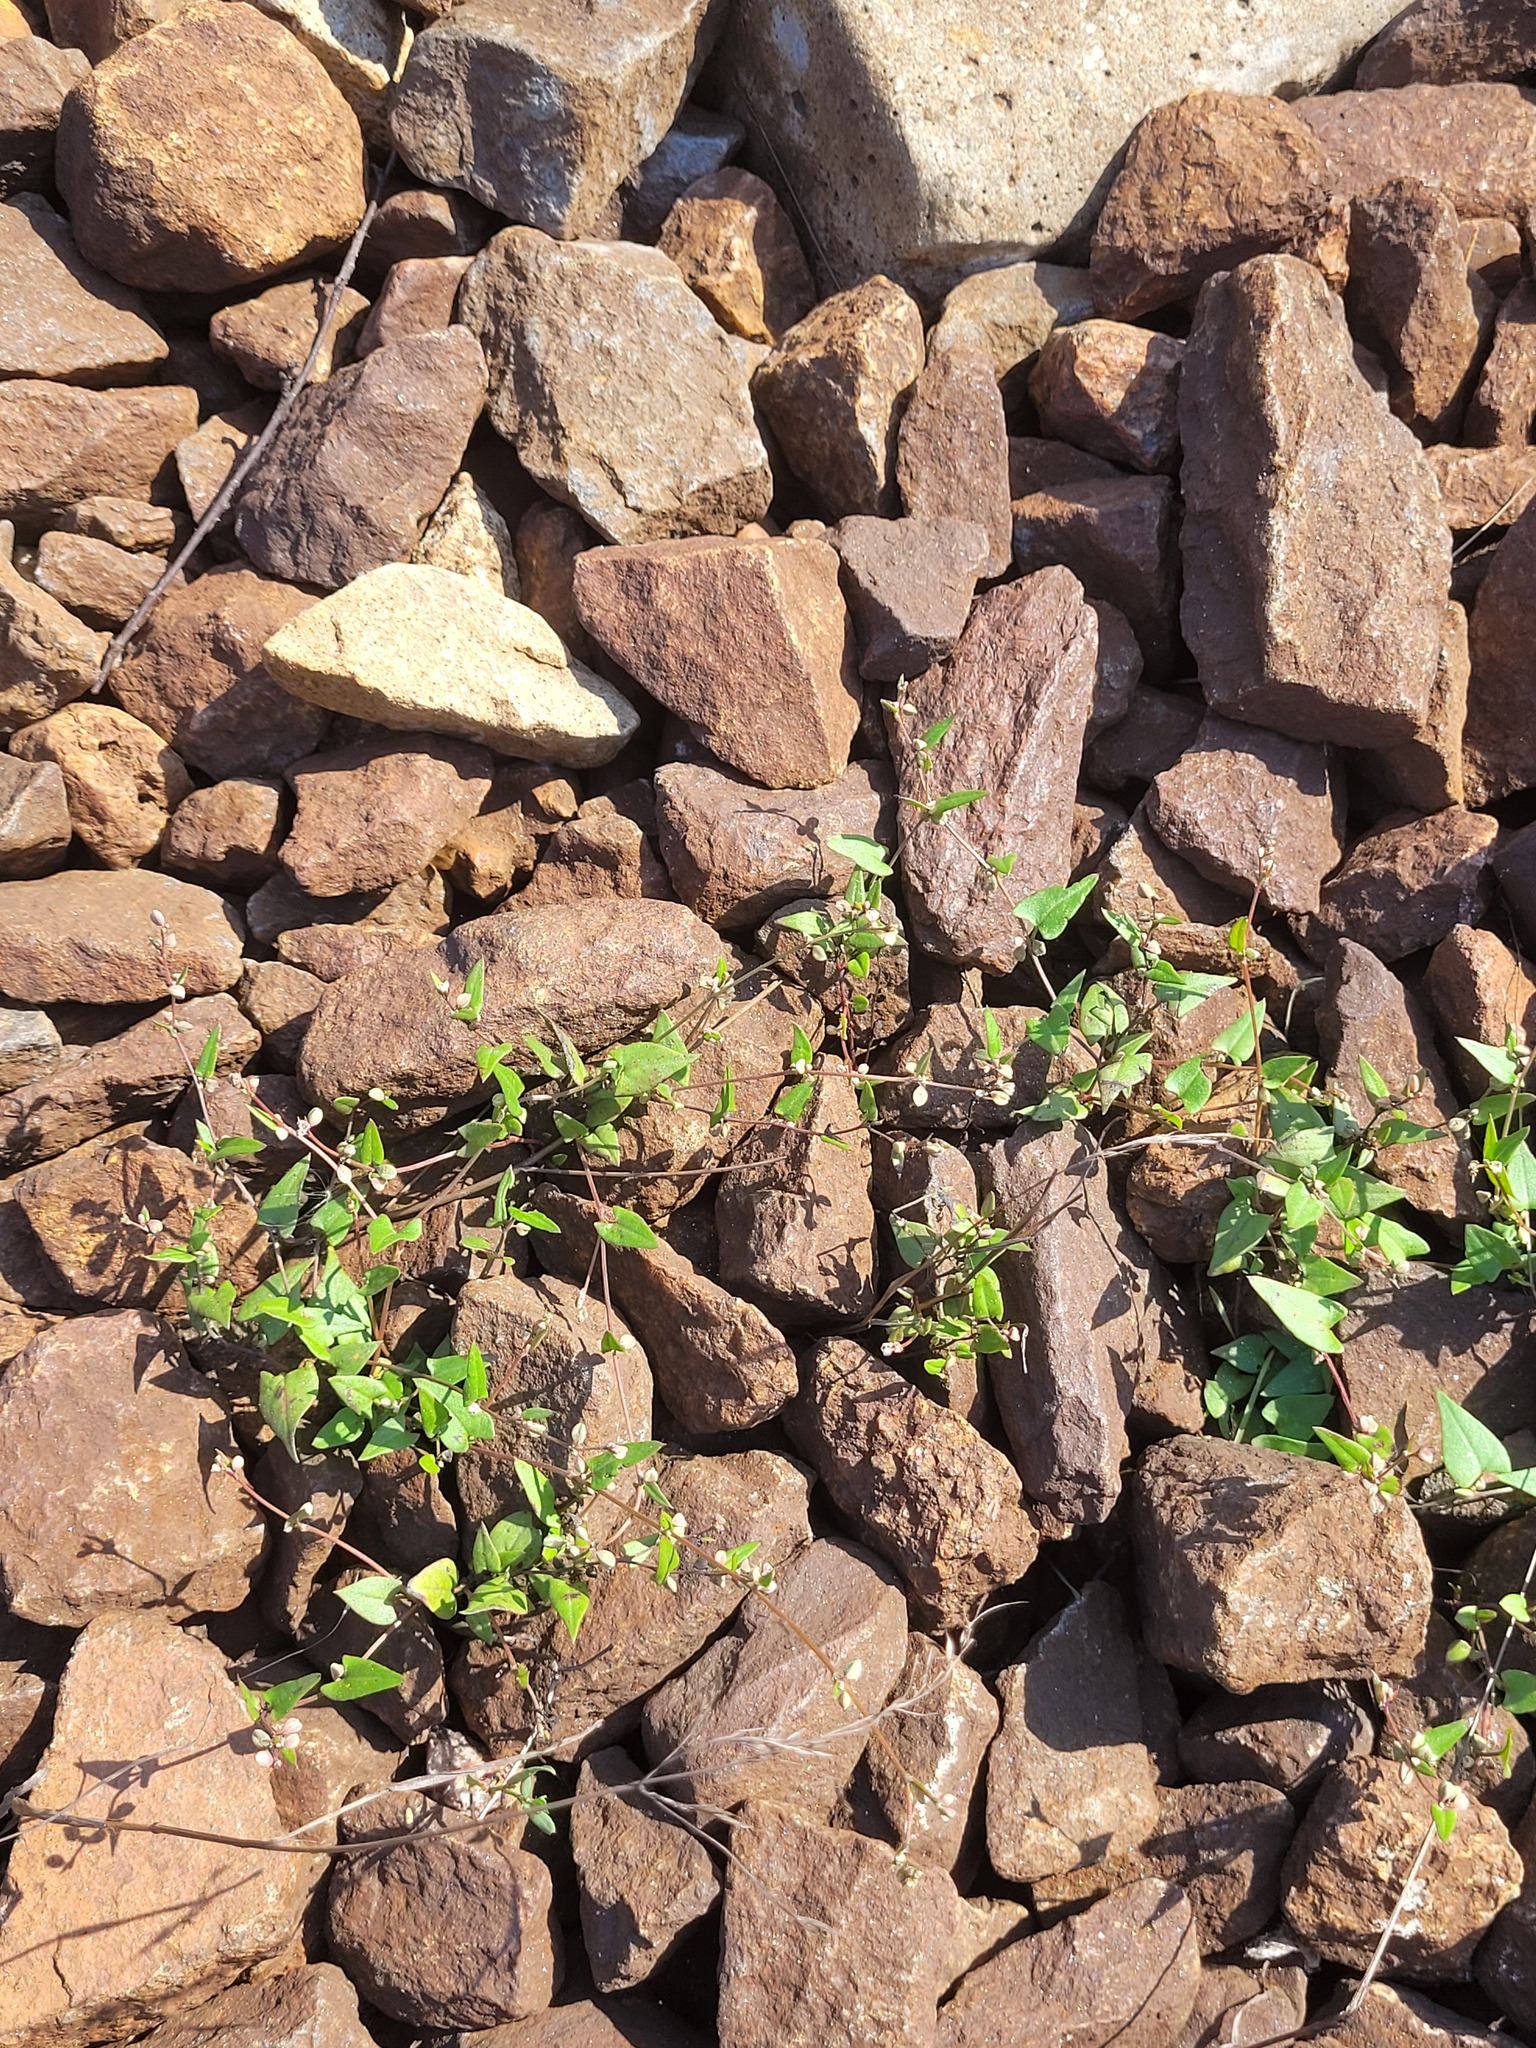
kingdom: Plantae
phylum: Tracheophyta
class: Magnoliopsida
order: Caryophyllales
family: Polygonaceae
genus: Fallopia
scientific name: Fallopia convolvulus
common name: Black bindweed
